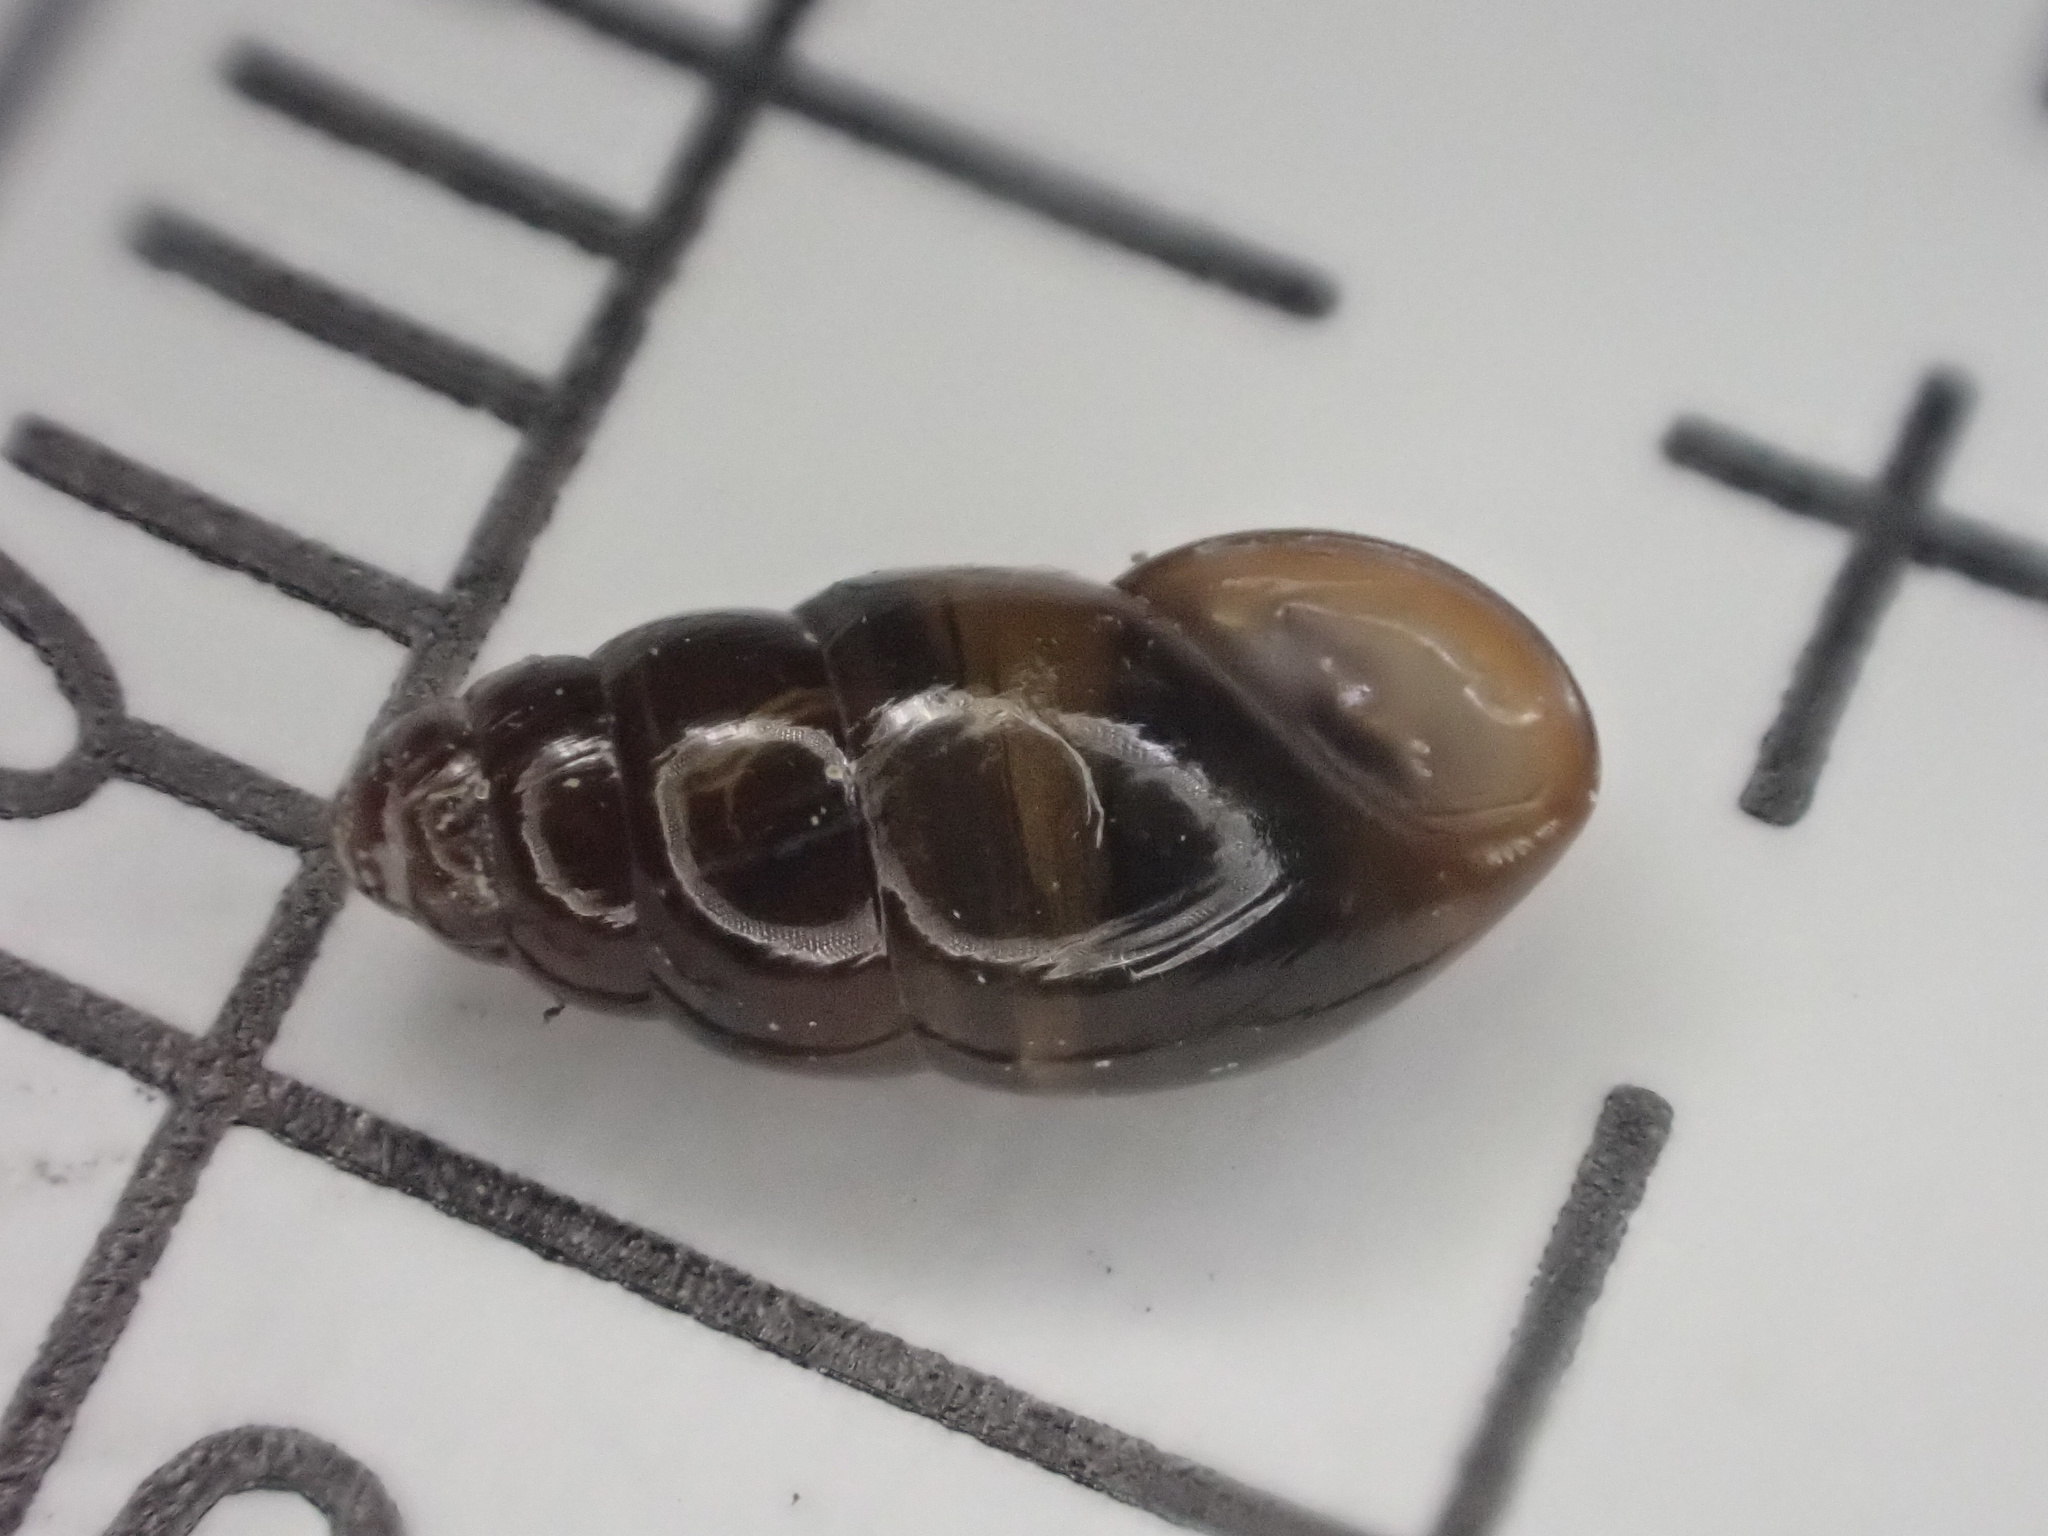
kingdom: Animalia
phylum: Mollusca
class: Gastropoda
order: Stylommatophora
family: Cochlicopidae
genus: Cochlicopa
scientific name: Cochlicopa lubrica
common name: Glossy pillar snail
